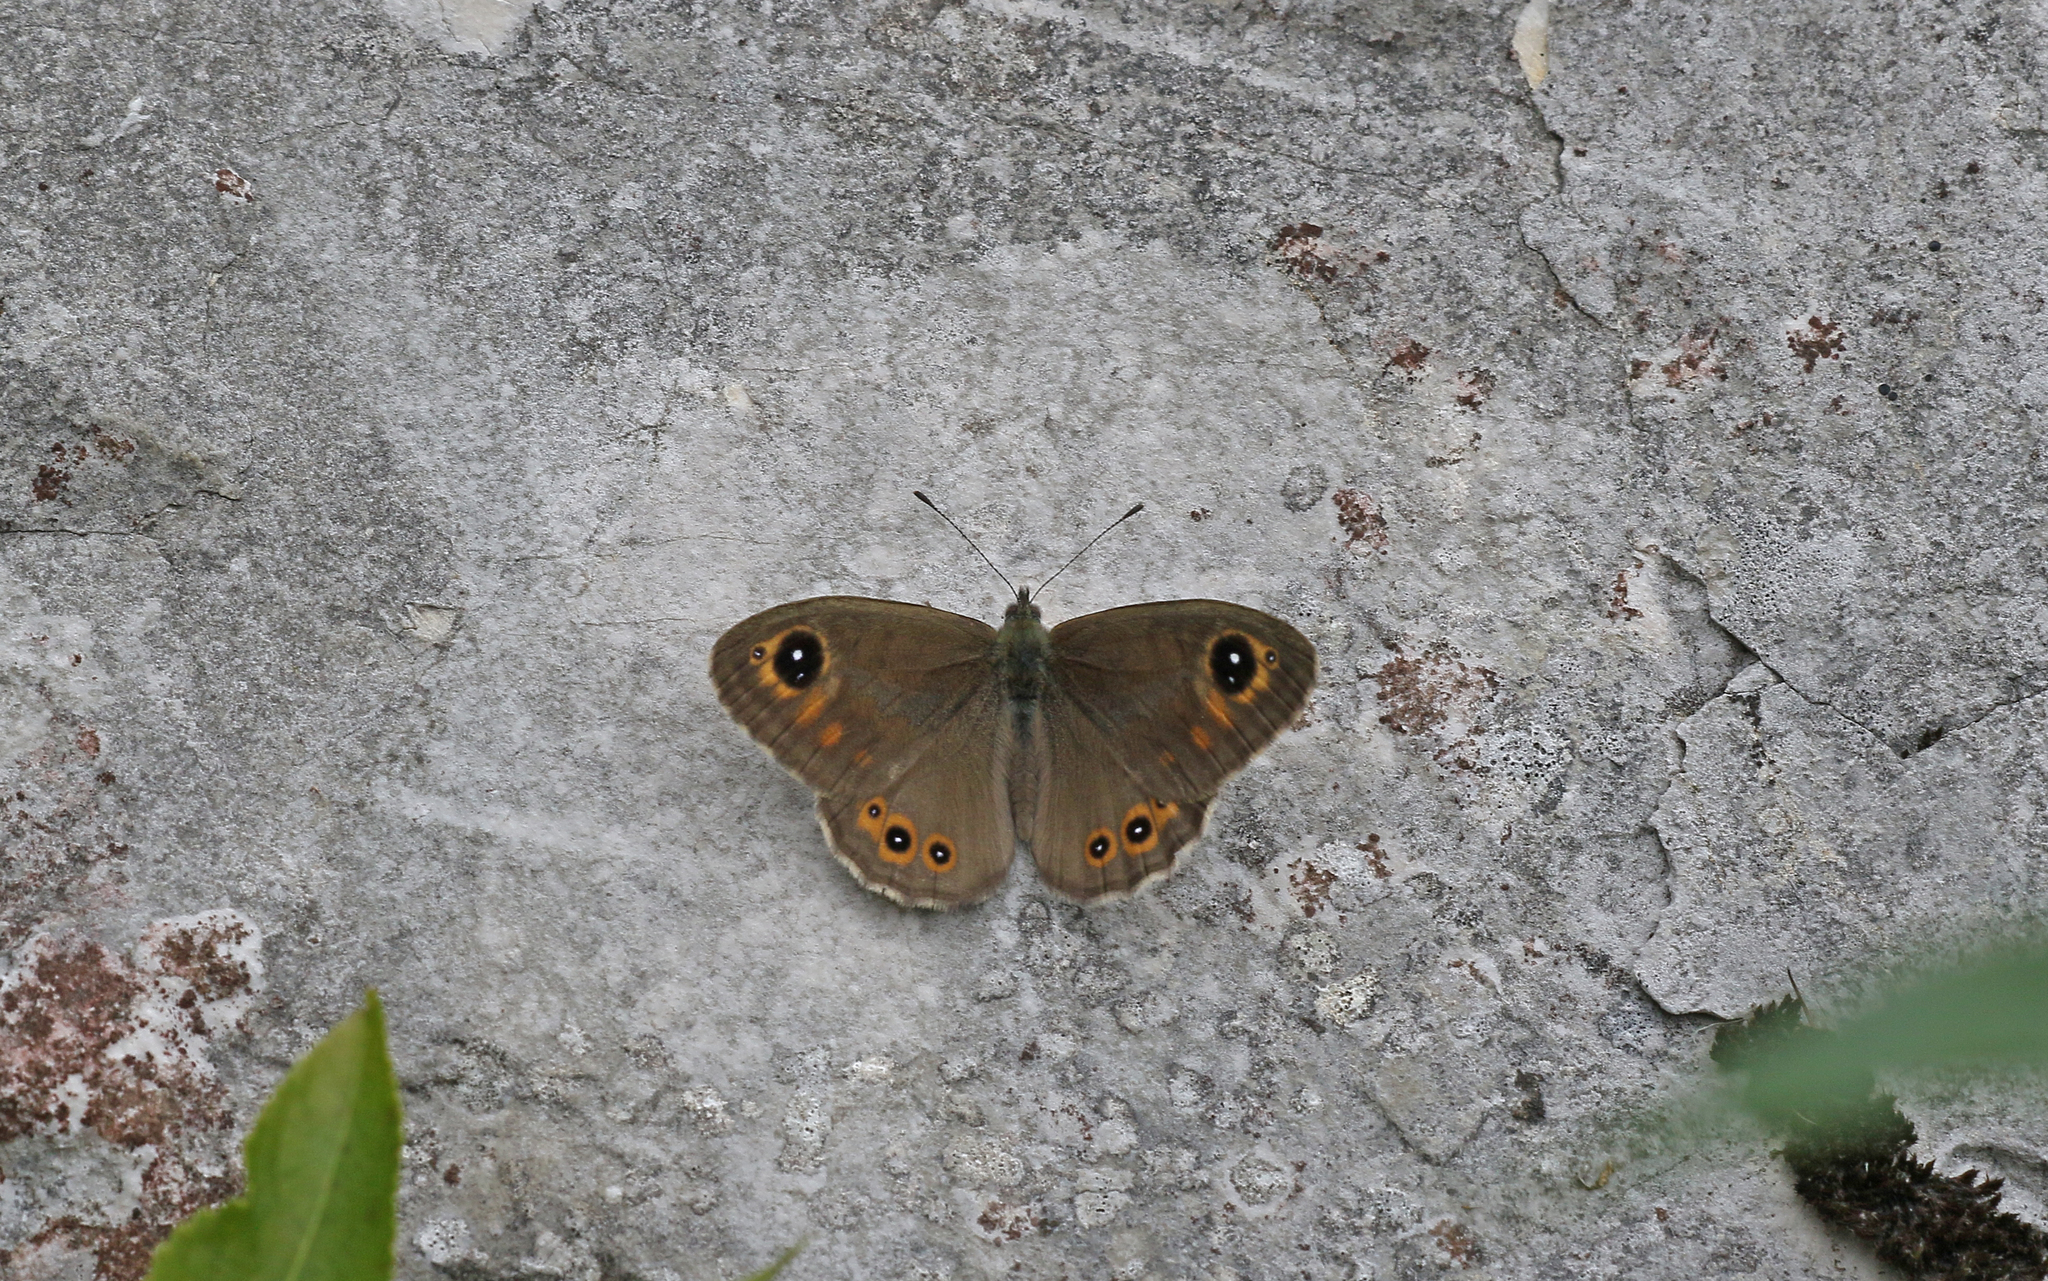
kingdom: Animalia
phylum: Arthropoda
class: Insecta
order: Lepidoptera
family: Nymphalidae
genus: Pararge
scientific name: Pararge Lasiommata maera
